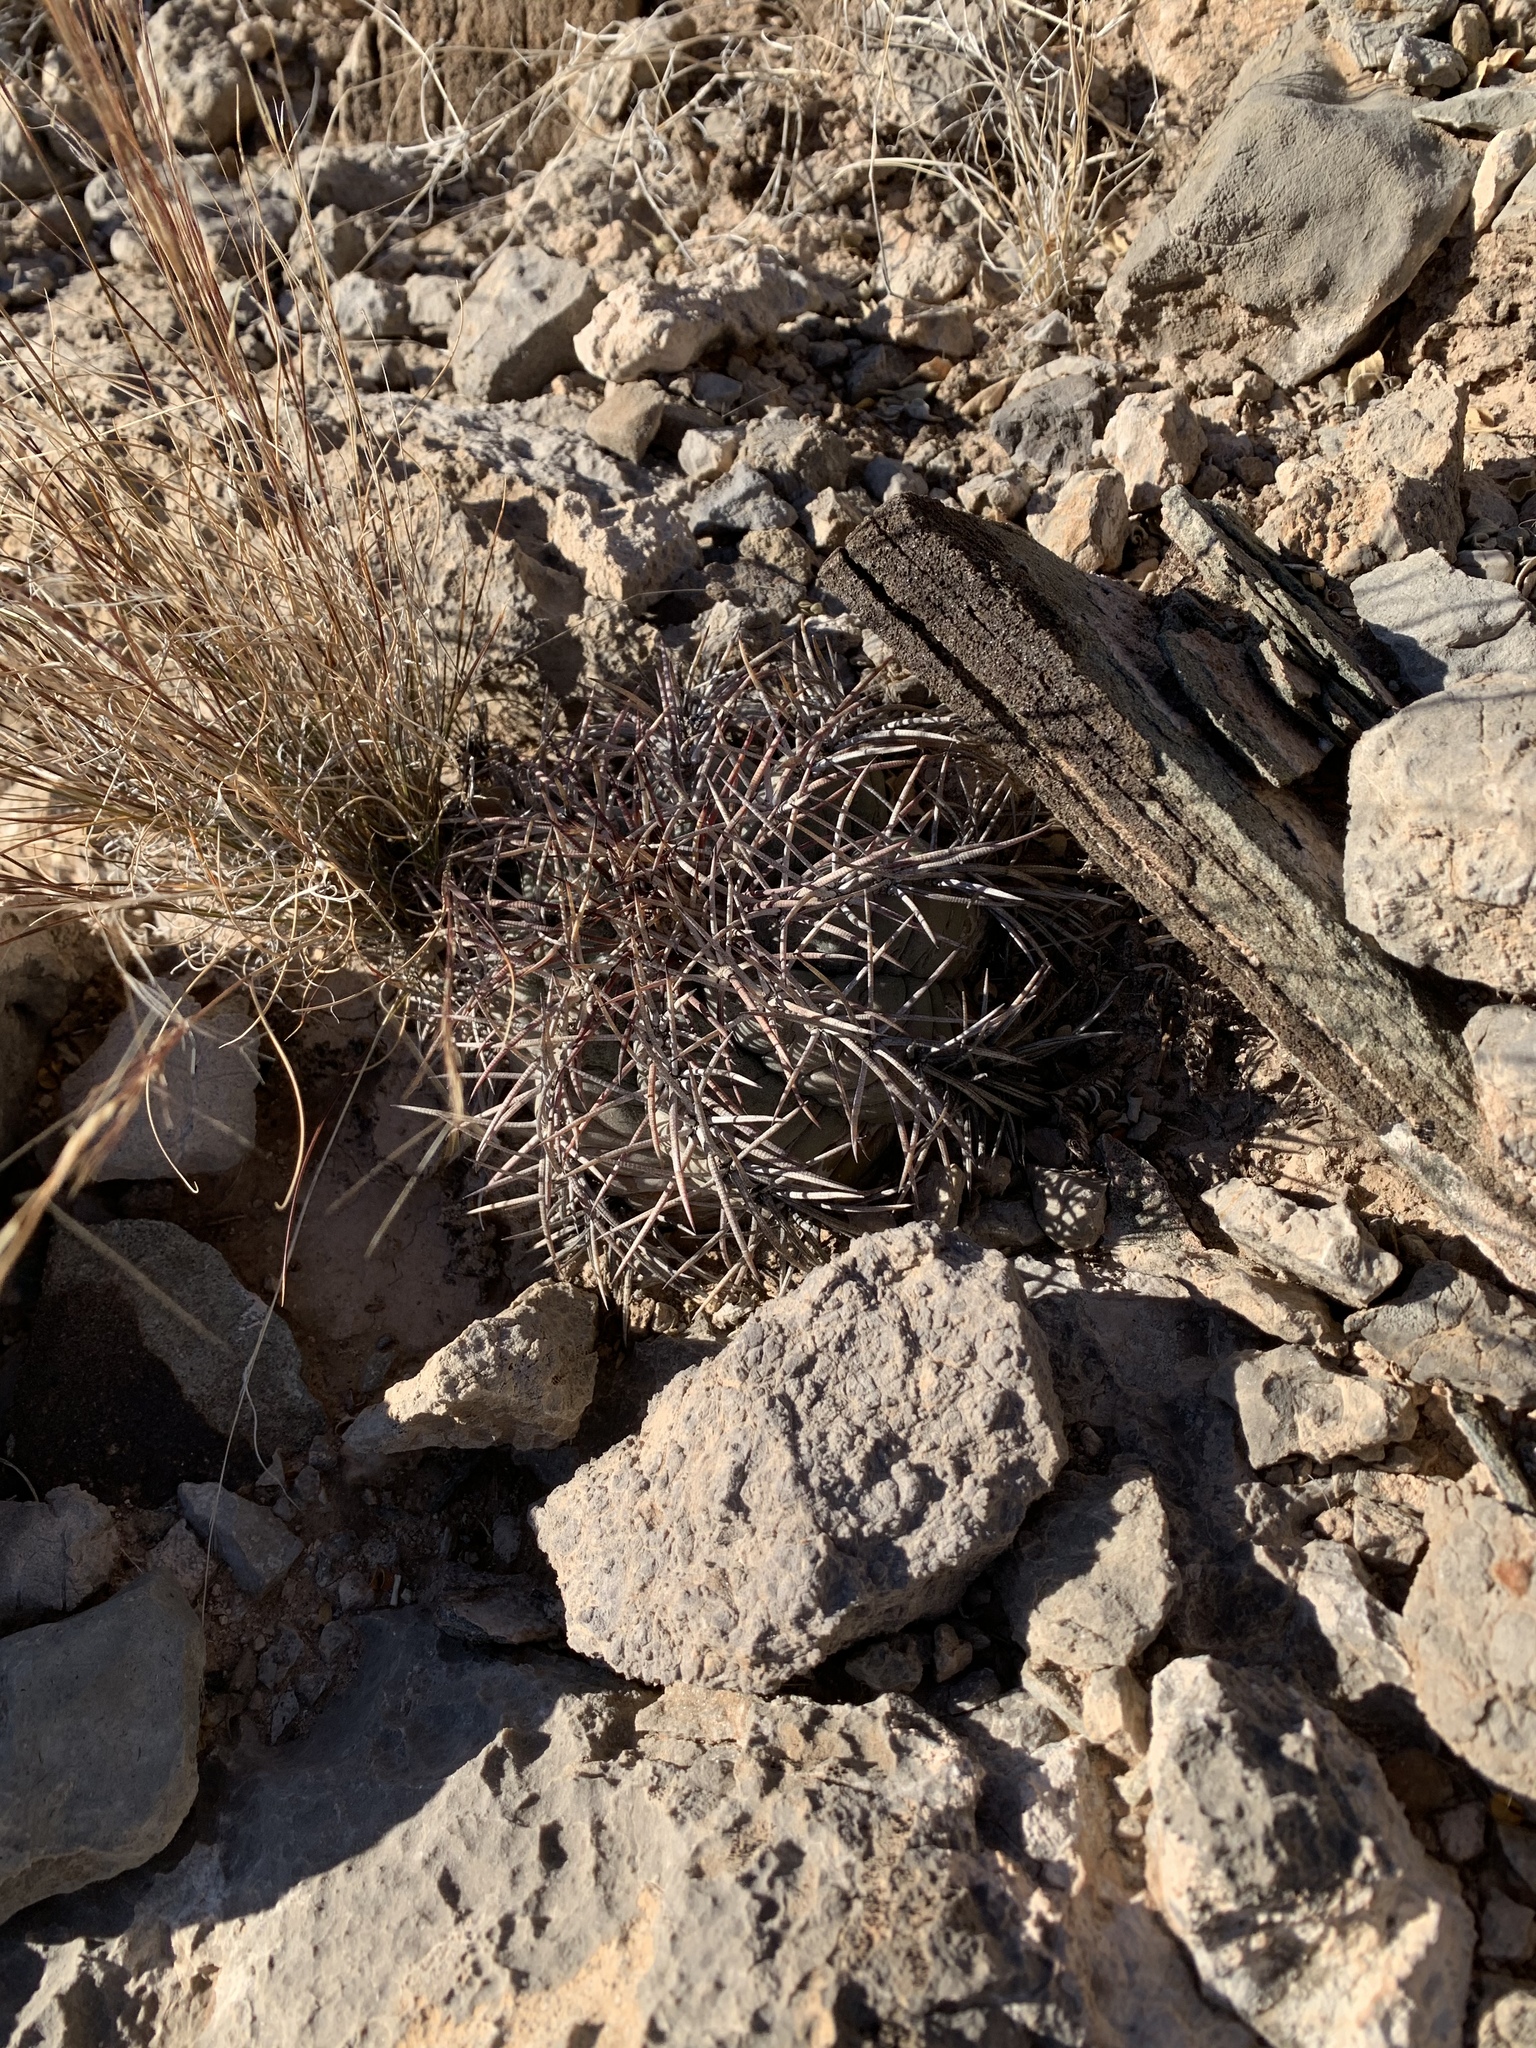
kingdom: Plantae
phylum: Tracheophyta
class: Magnoliopsida
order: Caryophyllales
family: Cactaceae
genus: Echinocactus
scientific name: Echinocactus horizonthalonius
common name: Devilshead
